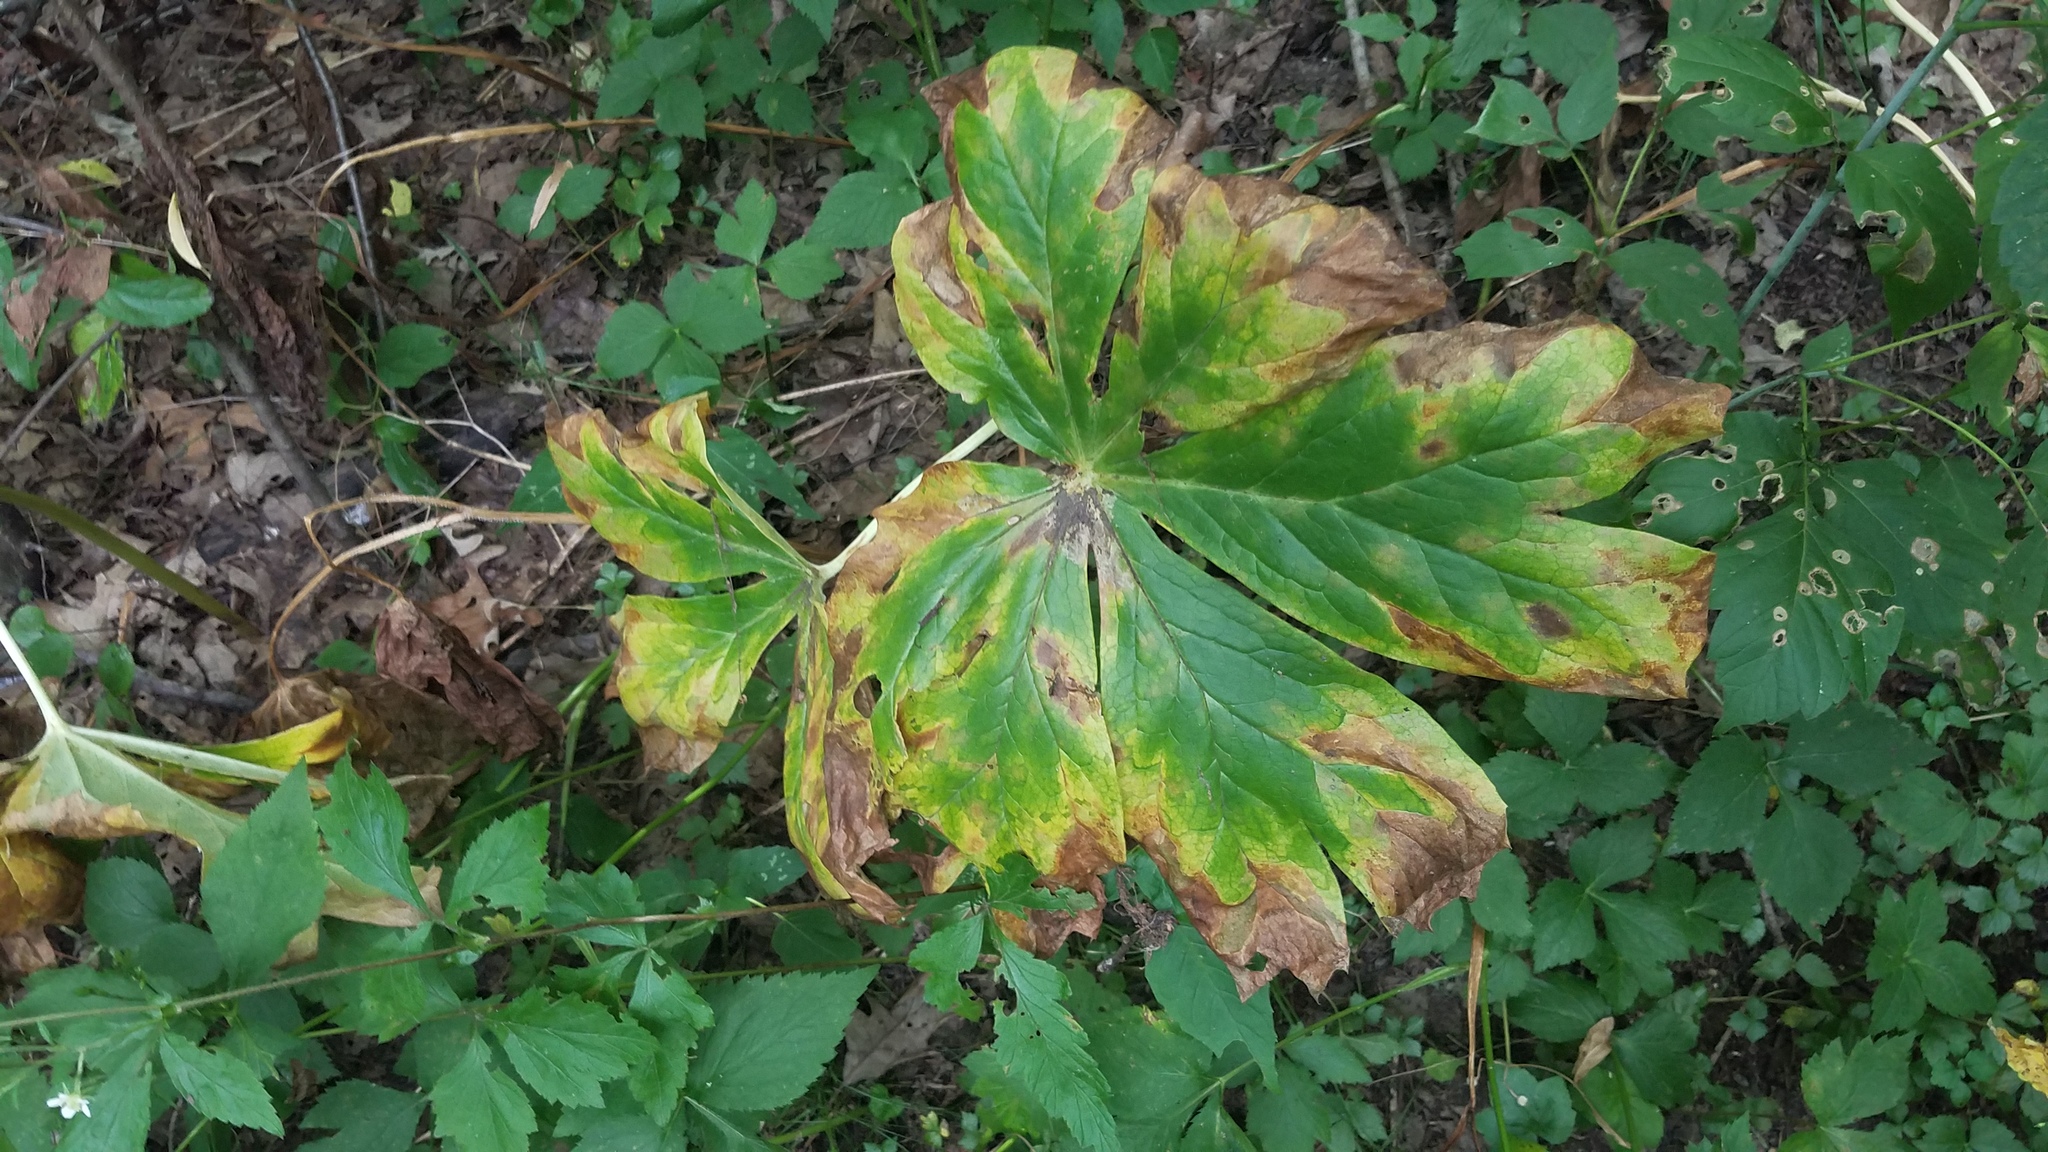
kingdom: Plantae
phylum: Tracheophyta
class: Magnoliopsida
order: Ranunculales
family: Berberidaceae
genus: Podophyllum
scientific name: Podophyllum peltatum
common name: Wild mandrake
